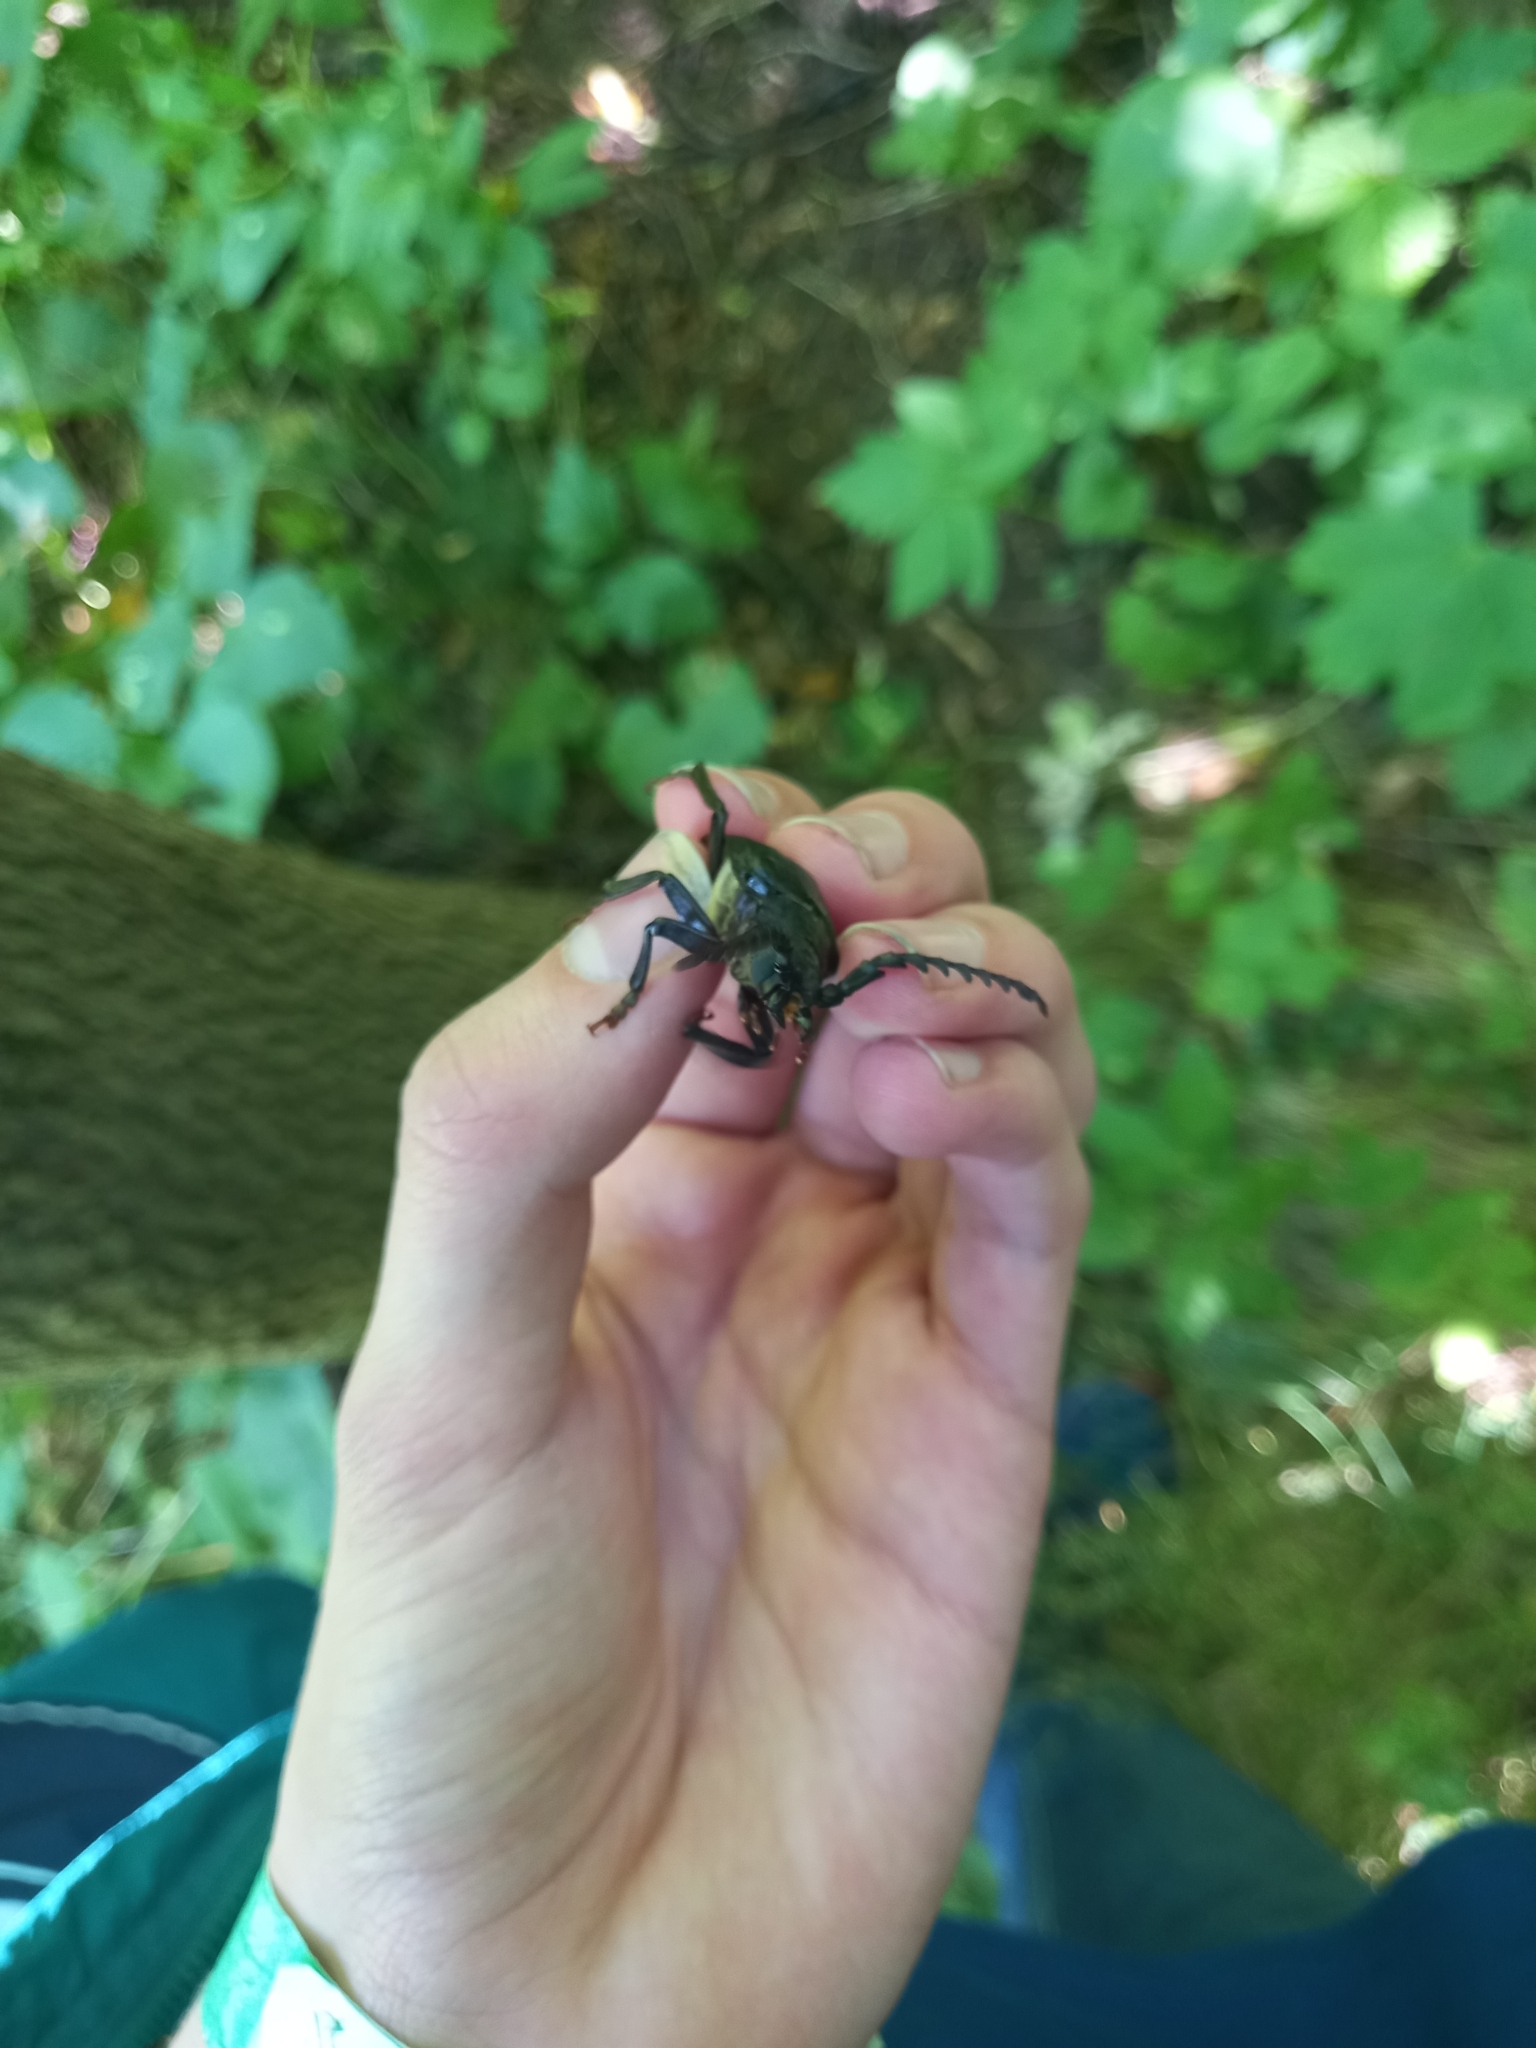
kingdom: Animalia
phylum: Arthropoda
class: Insecta
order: Coleoptera
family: Cerambycidae
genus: Prionus
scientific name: Prionus coriarius
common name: Tanner beetle
